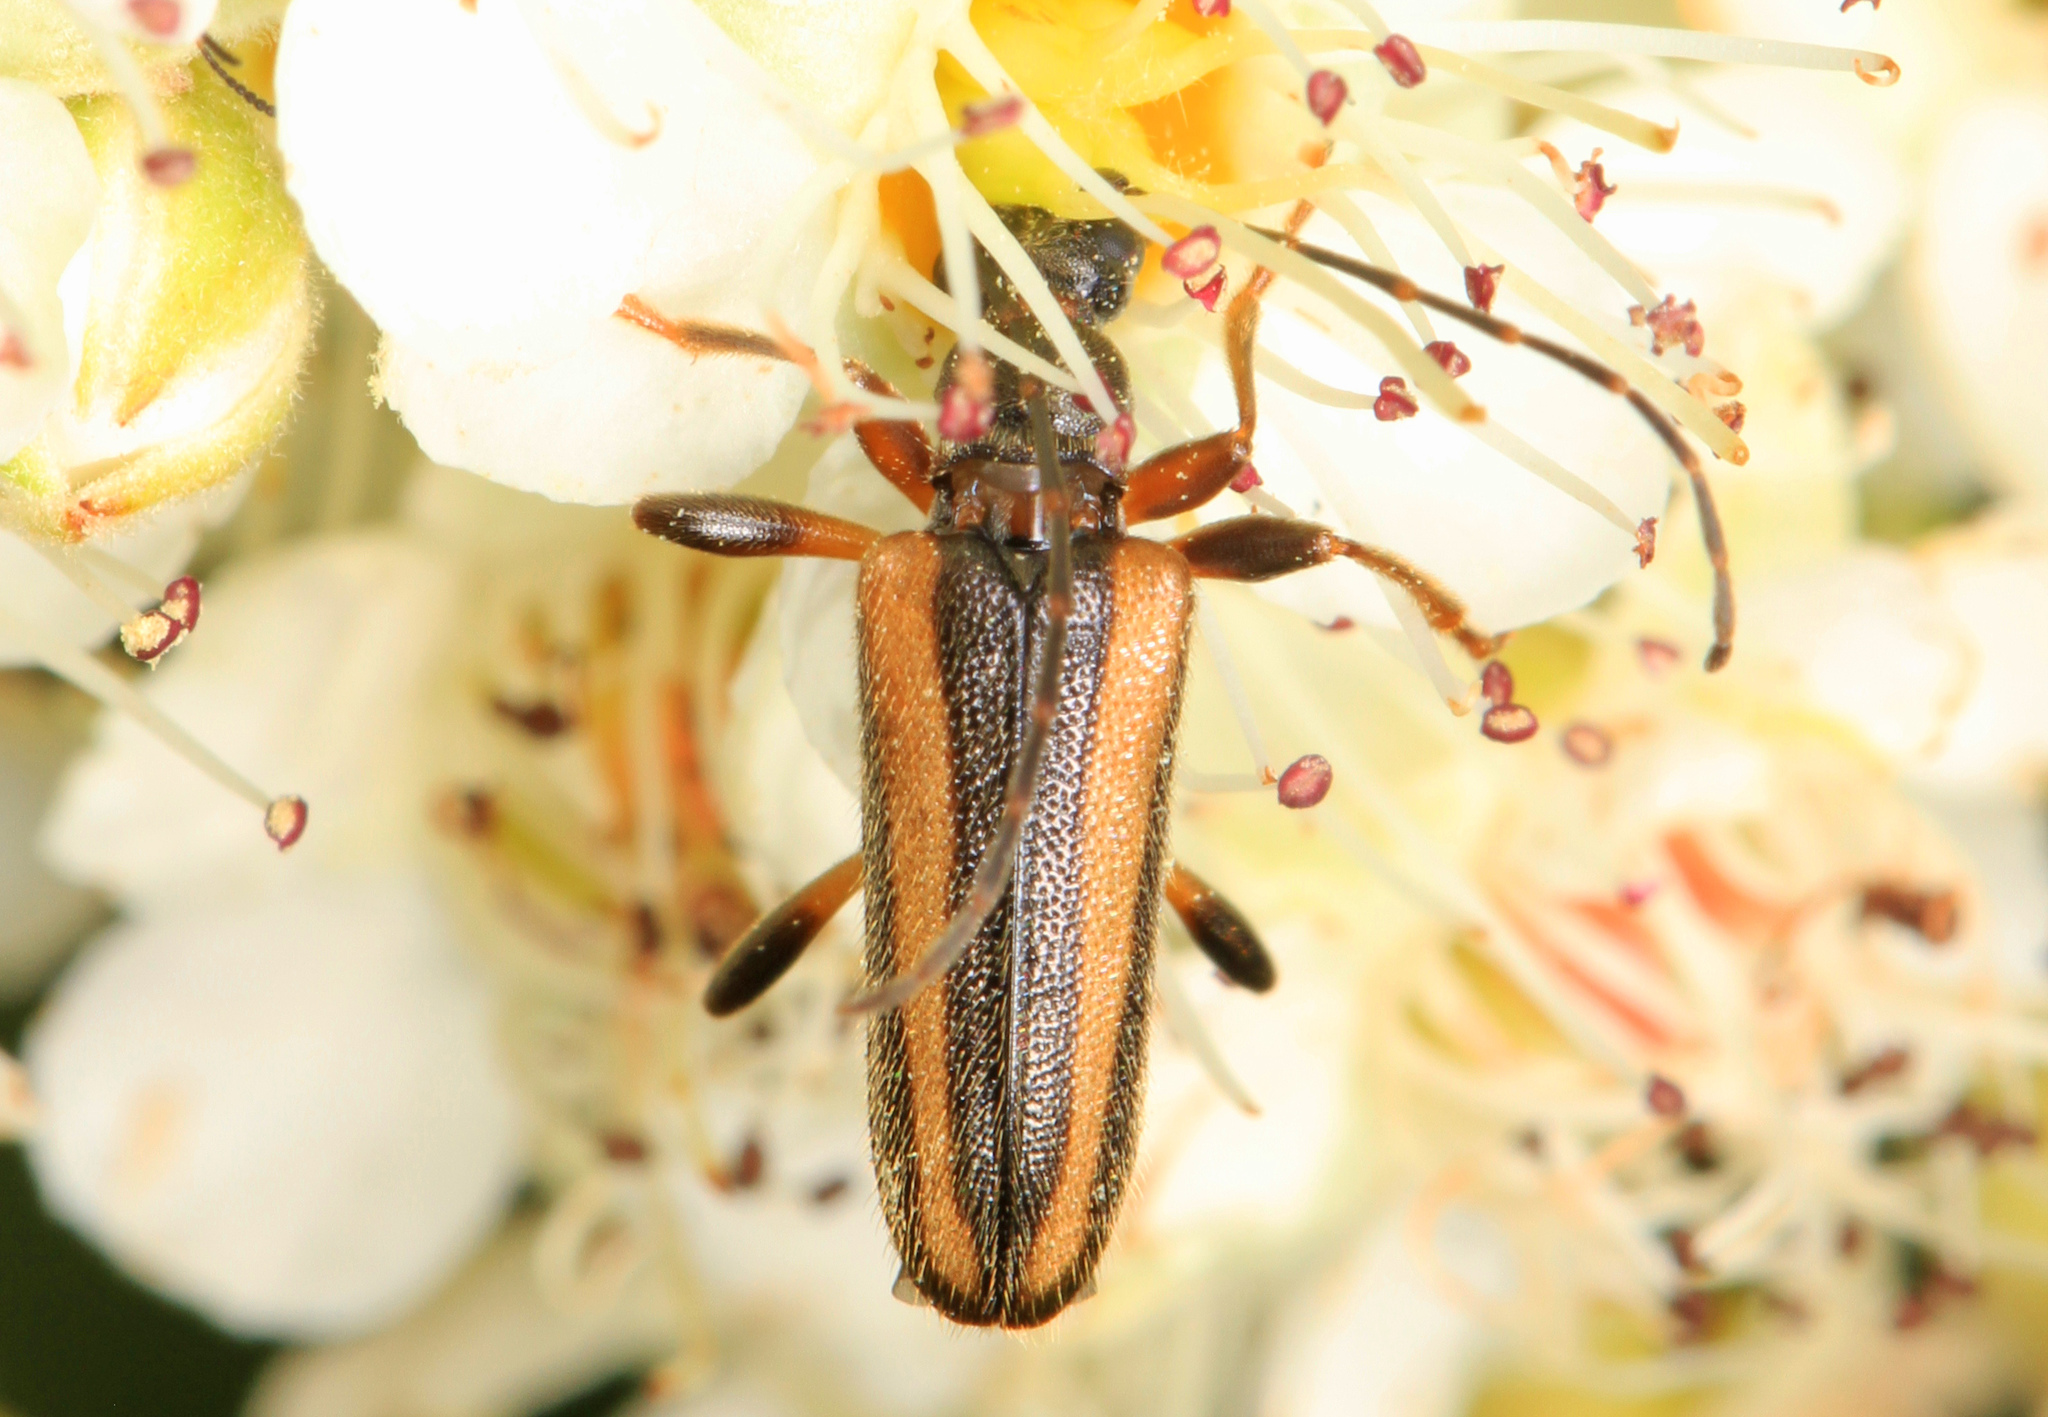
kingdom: Animalia
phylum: Arthropoda
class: Insecta
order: Coleoptera
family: Cerambycidae
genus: Pidonia
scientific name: Pidonia ruficollis
